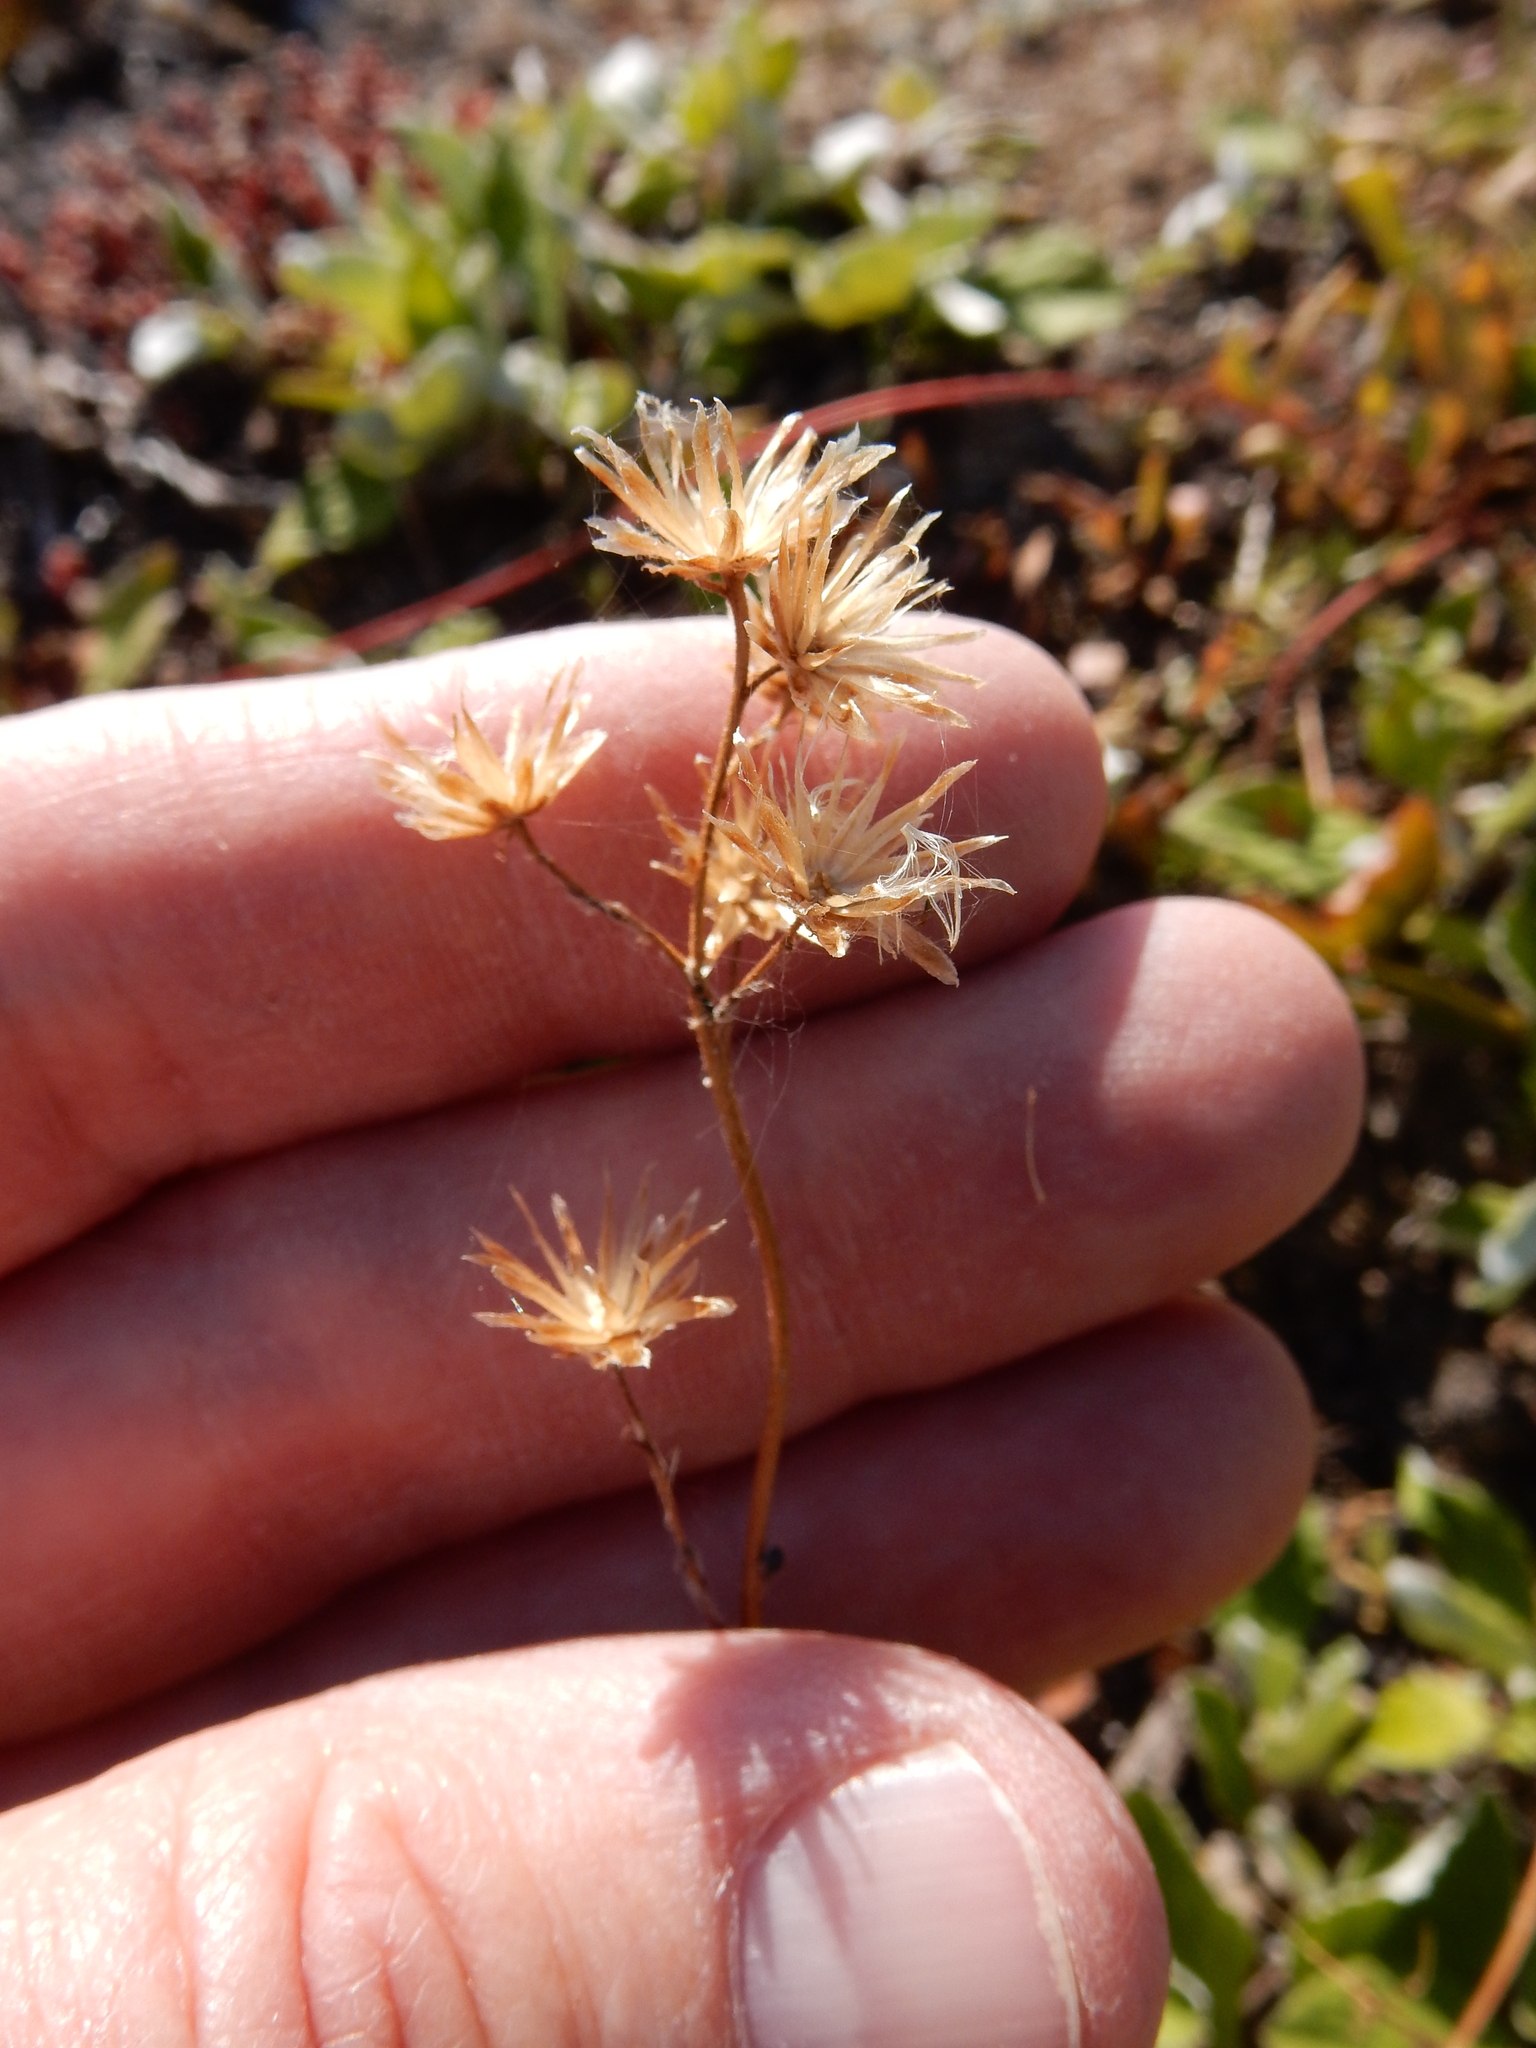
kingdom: Plantae
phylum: Tracheophyta
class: Magnoliopsida
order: Asterales
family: Asteraceae
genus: Antennaria
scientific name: Antennaria racemosa
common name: Racemose pussytoes
